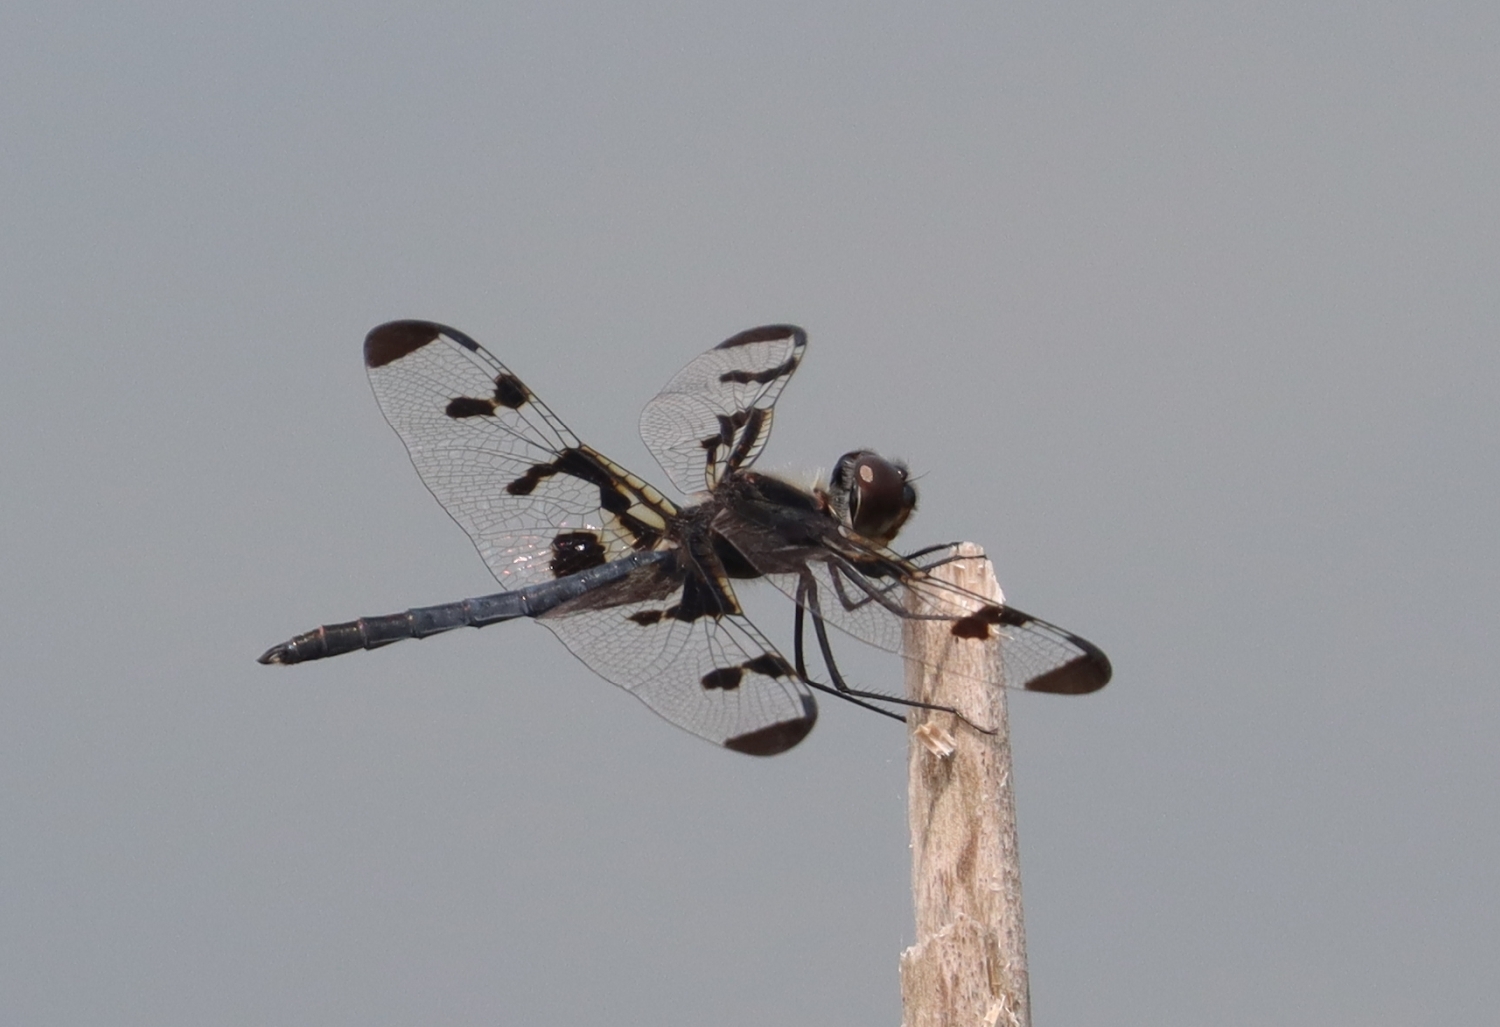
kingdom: Animalia
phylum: Arthropoda
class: Insecta
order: Odonata
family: Libellulidae
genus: Celithemis
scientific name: Celithemis fasciata
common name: Banded pennant
